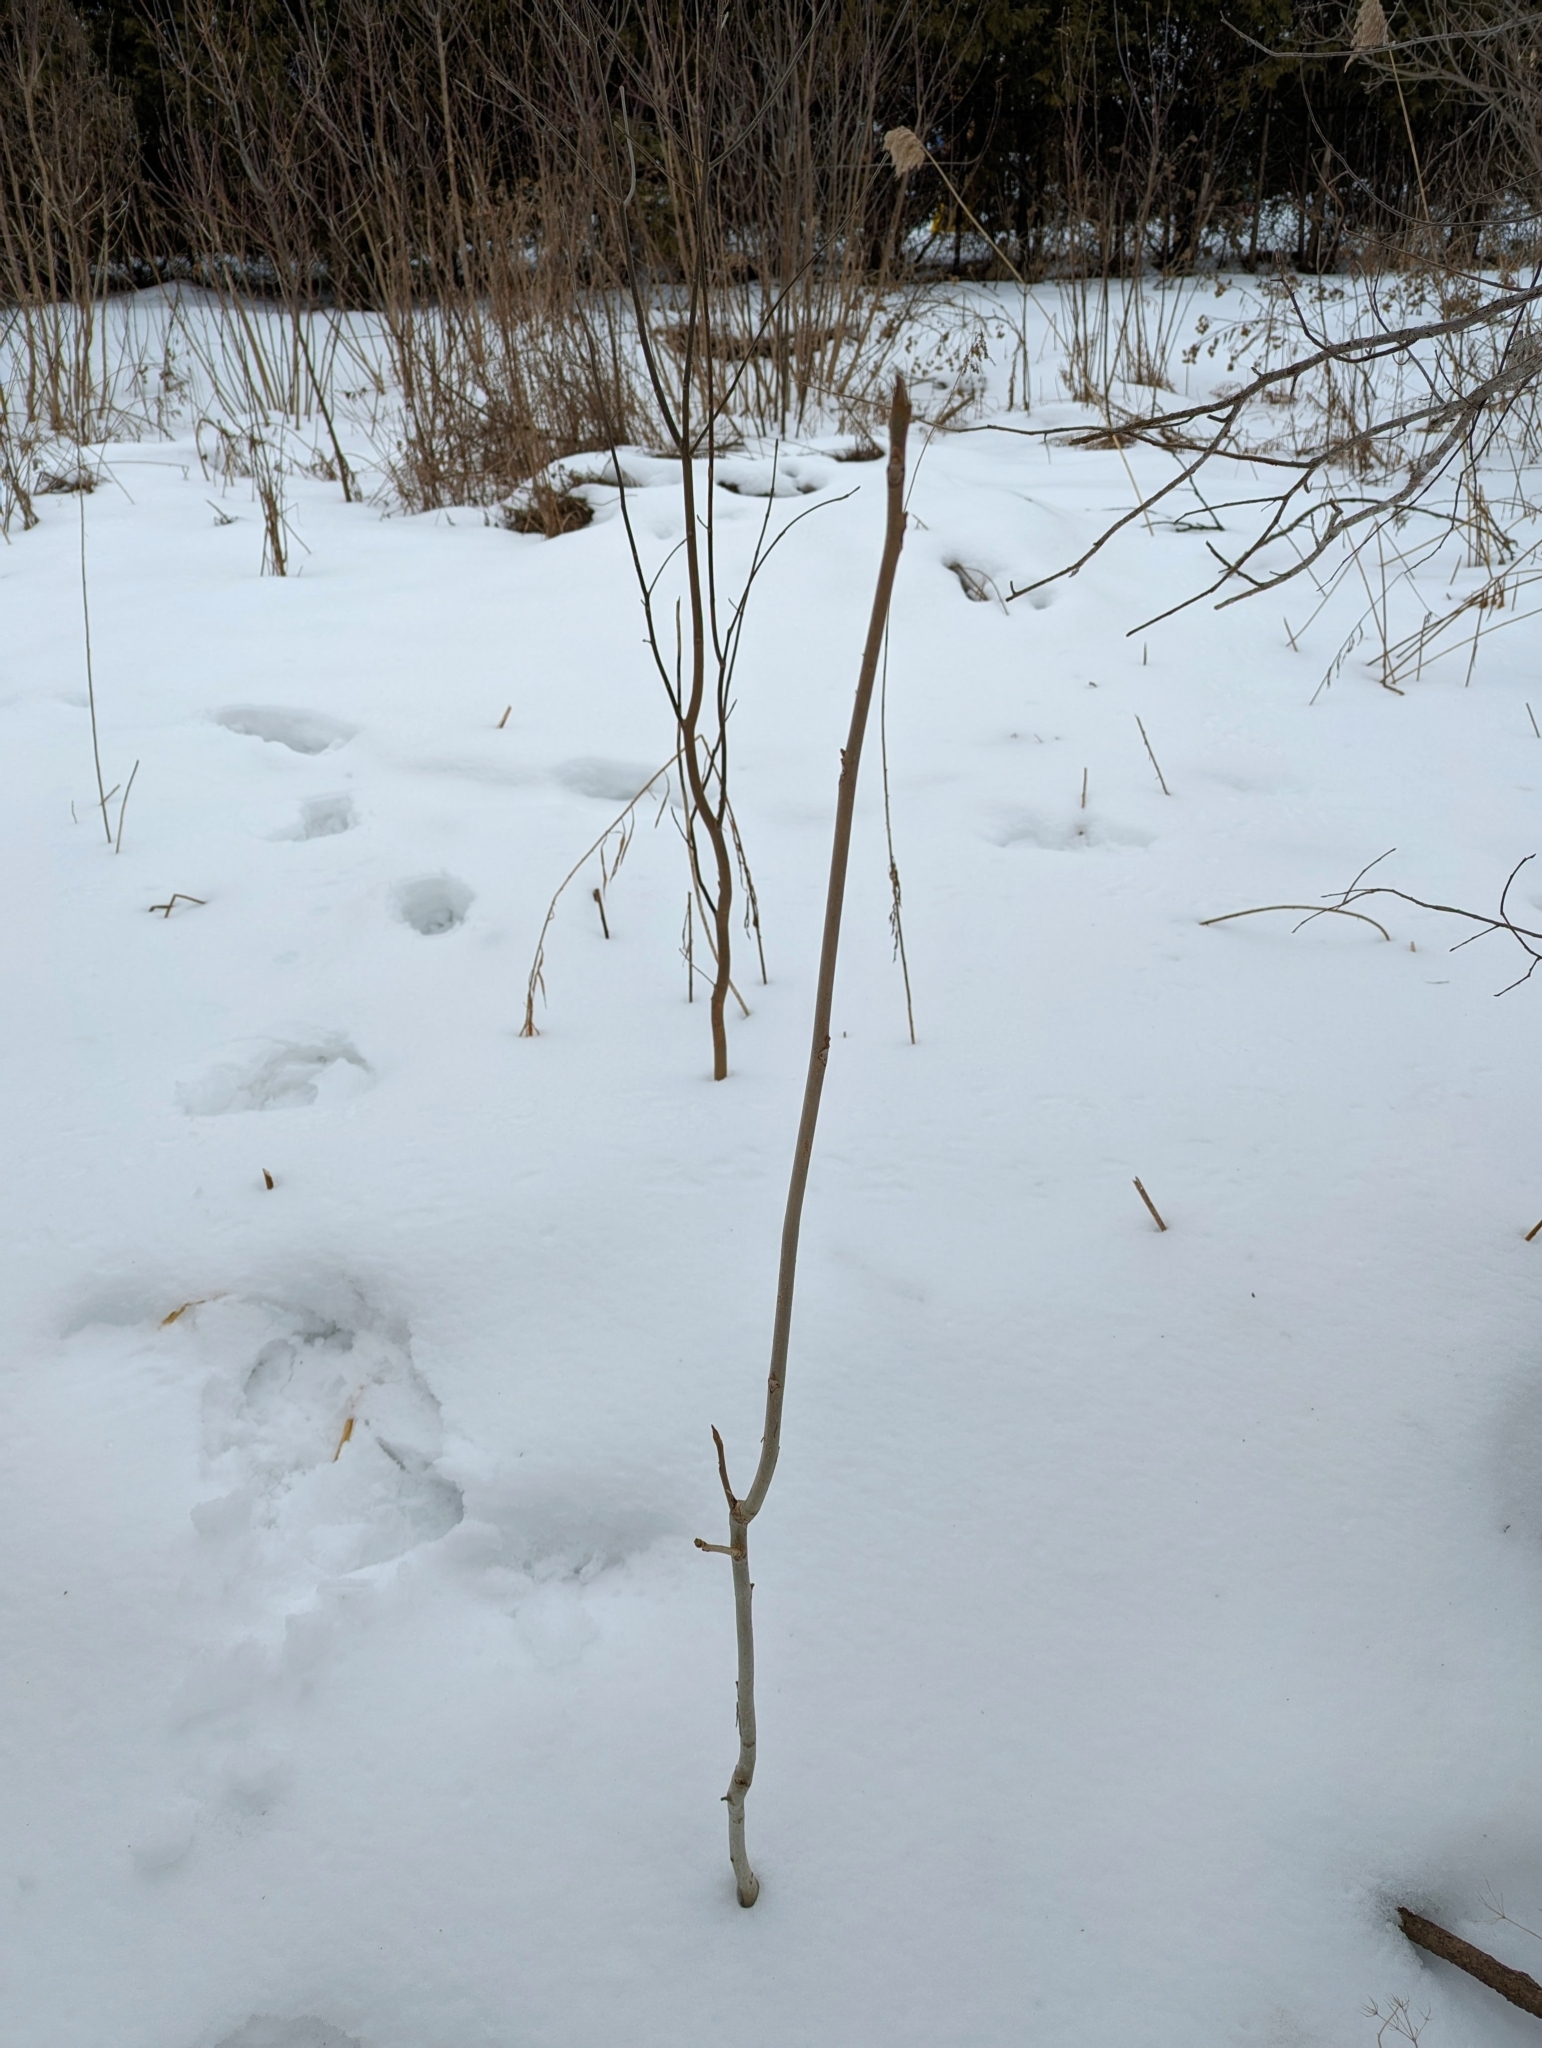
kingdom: Plantae
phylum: Tracheophyta
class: Magnoliopsida
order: Fagales
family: Juglandaceae
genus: Juglans
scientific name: Juglans cinerea
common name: Butternut
